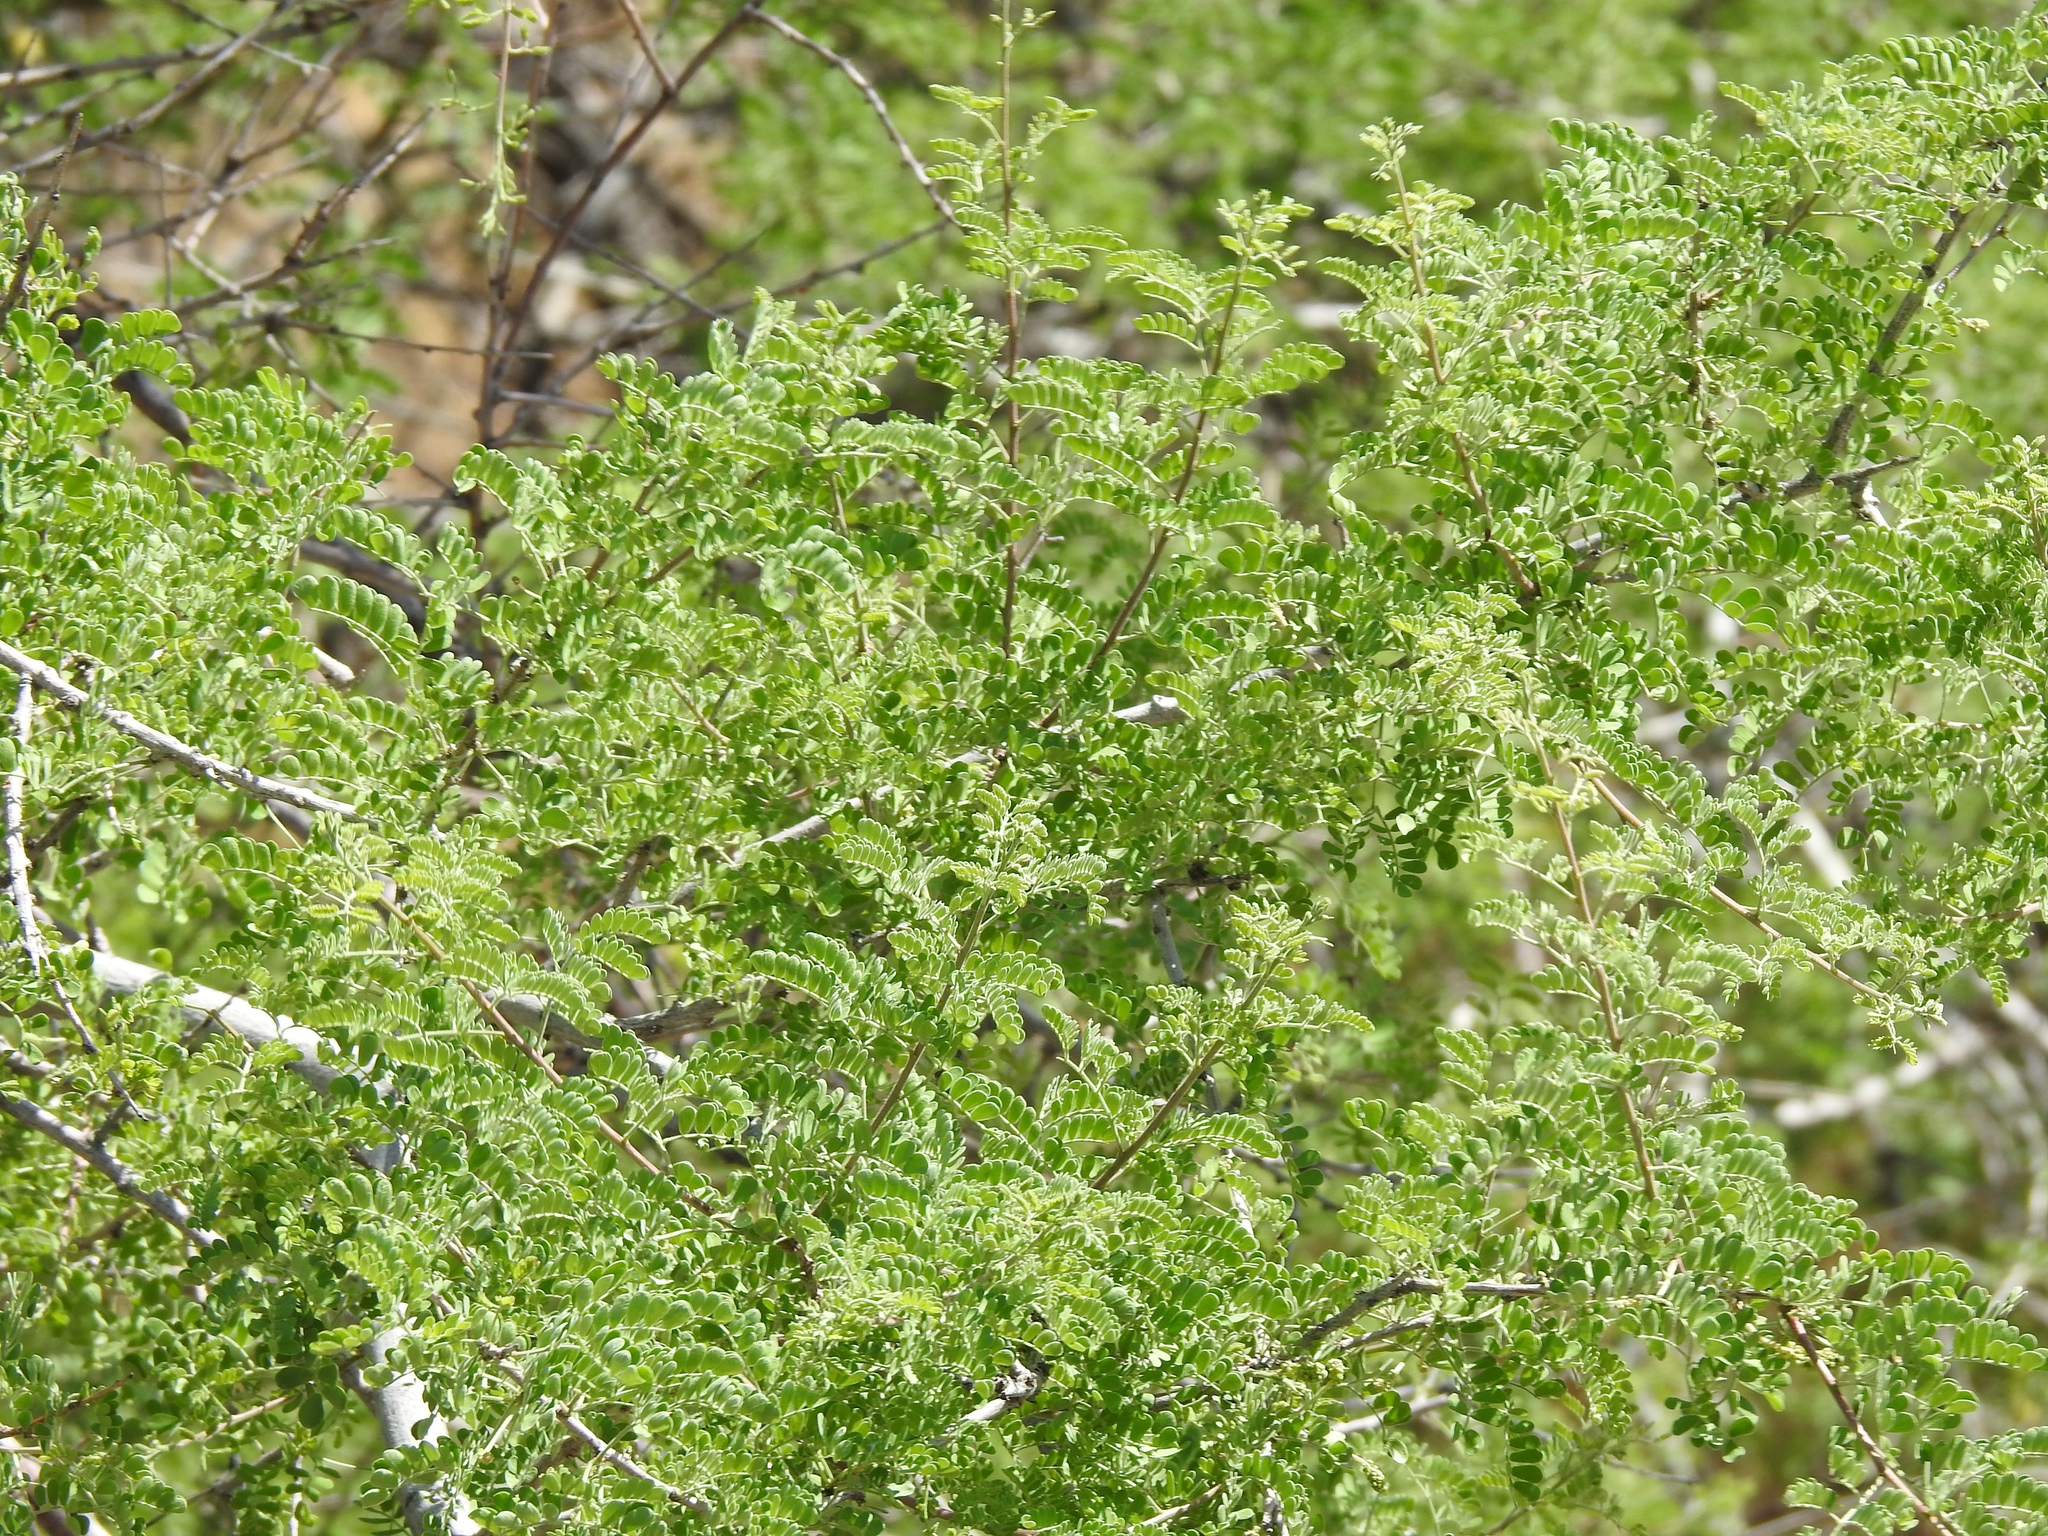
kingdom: Plantae
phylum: Tracheophyta
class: Magnoliopsida
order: Fabales
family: Fabaceae
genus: Senegalia
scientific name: Senegalia greggii
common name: Texas-mimosa
